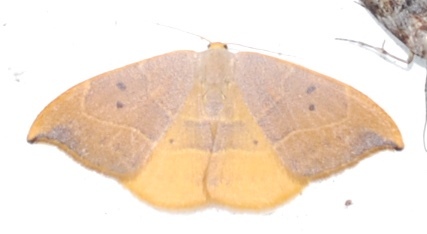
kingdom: Animalia
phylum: Arthropoda
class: Insecta
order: Lepidoptera
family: Drepanidae
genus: Watsonalla
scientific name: Watsonalla binaria
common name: Oak hook-tip
